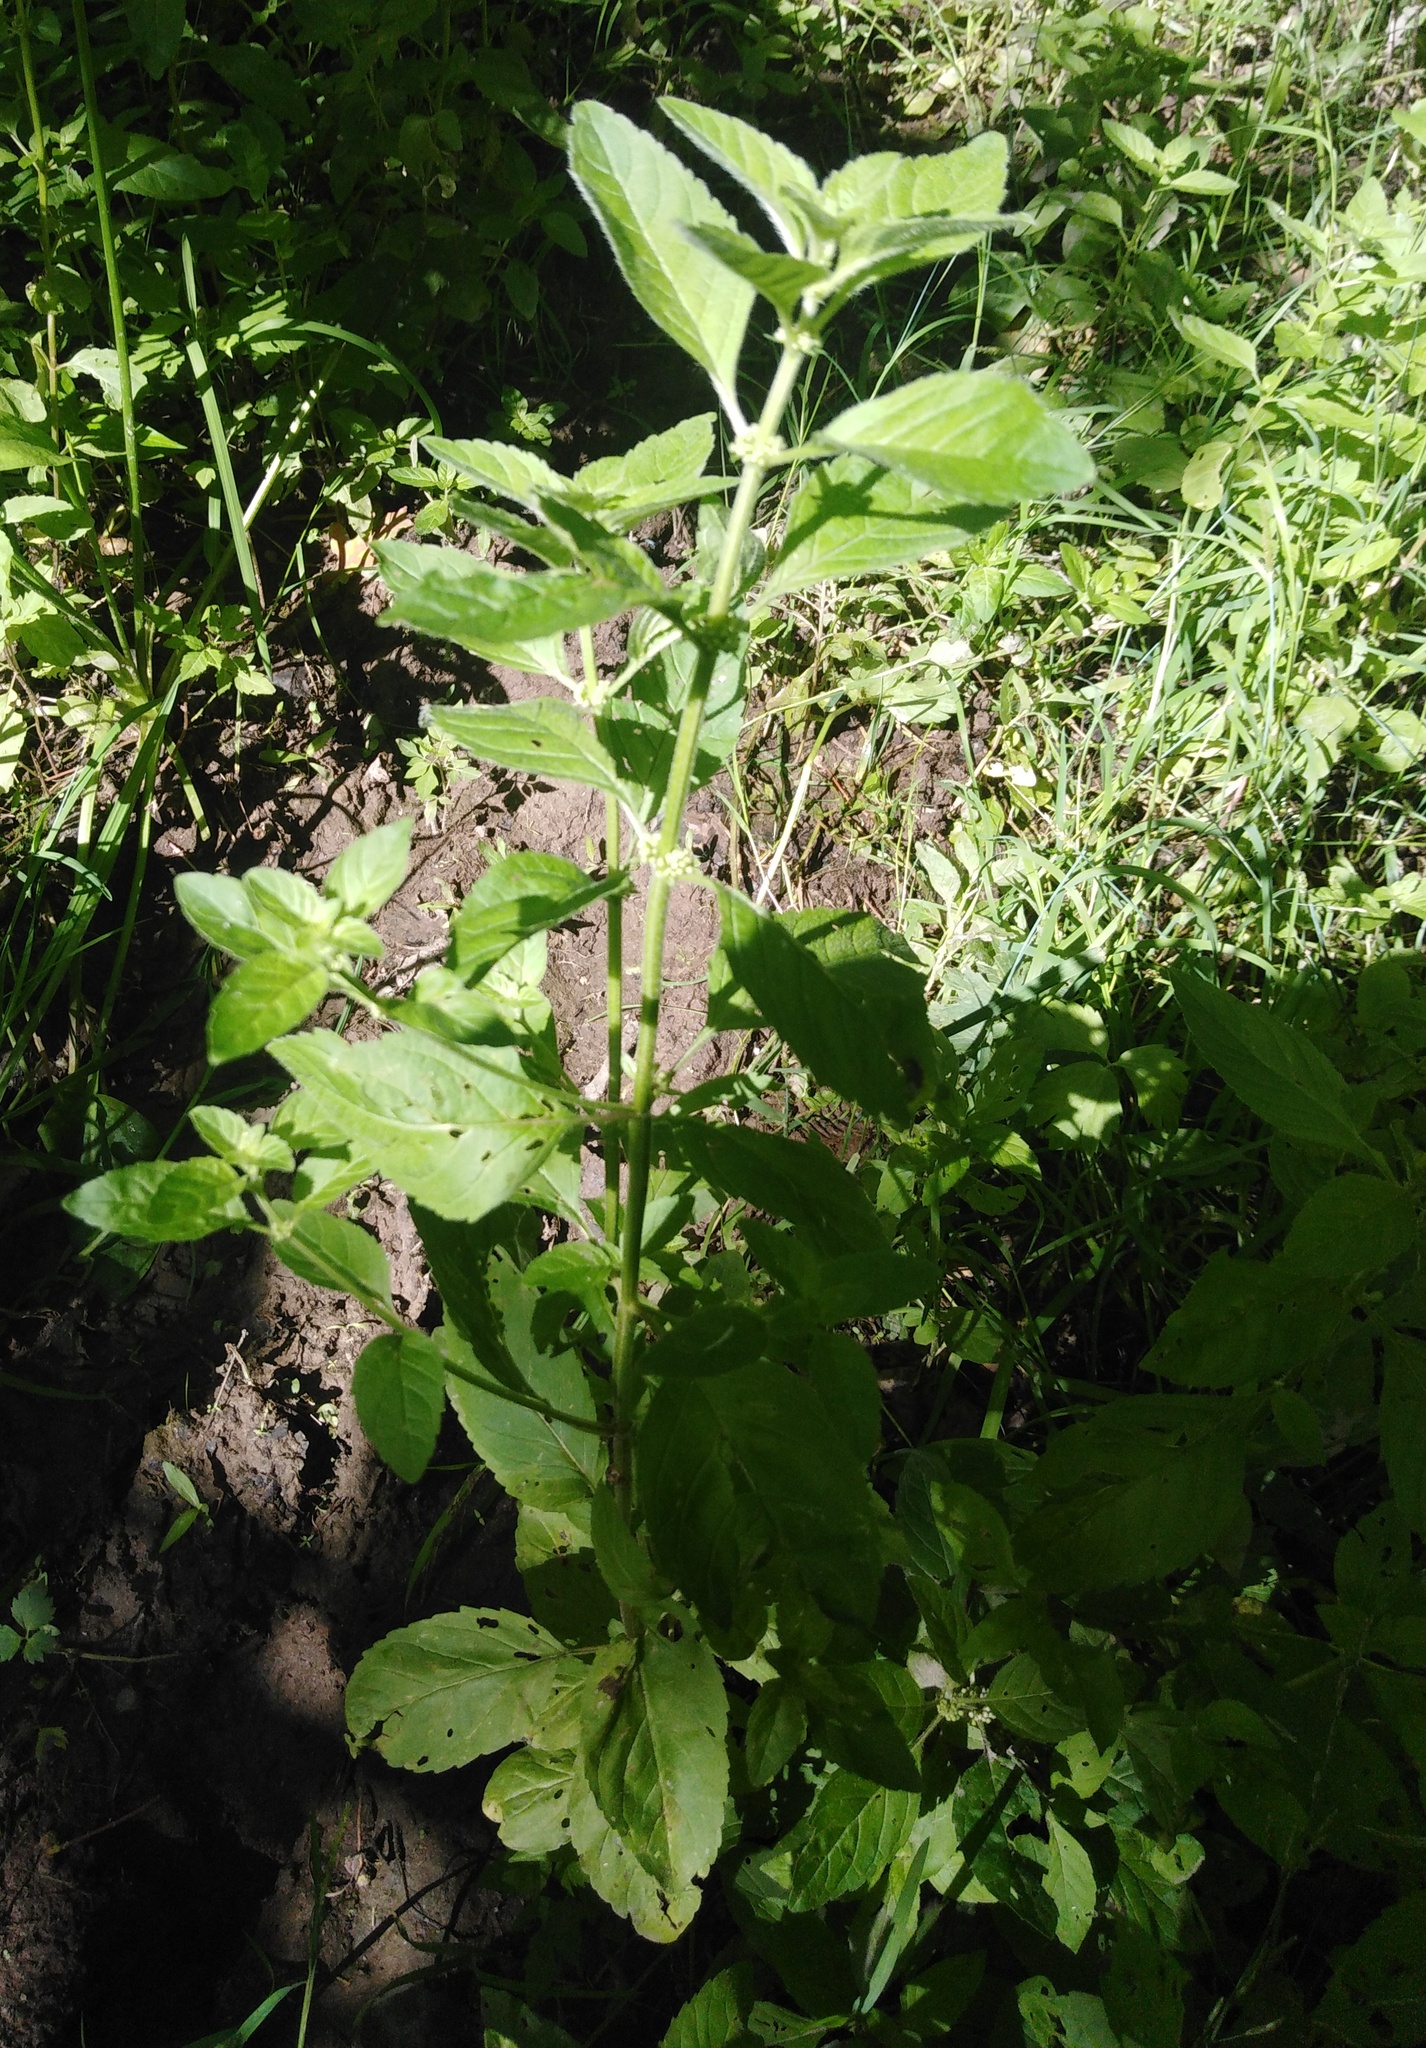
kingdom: Plantae
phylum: Tracheophyta
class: Magnoliopsida
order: Lamiales
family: Lamiaceae
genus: Mentha
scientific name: Mentha arvensis
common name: Corn mint
